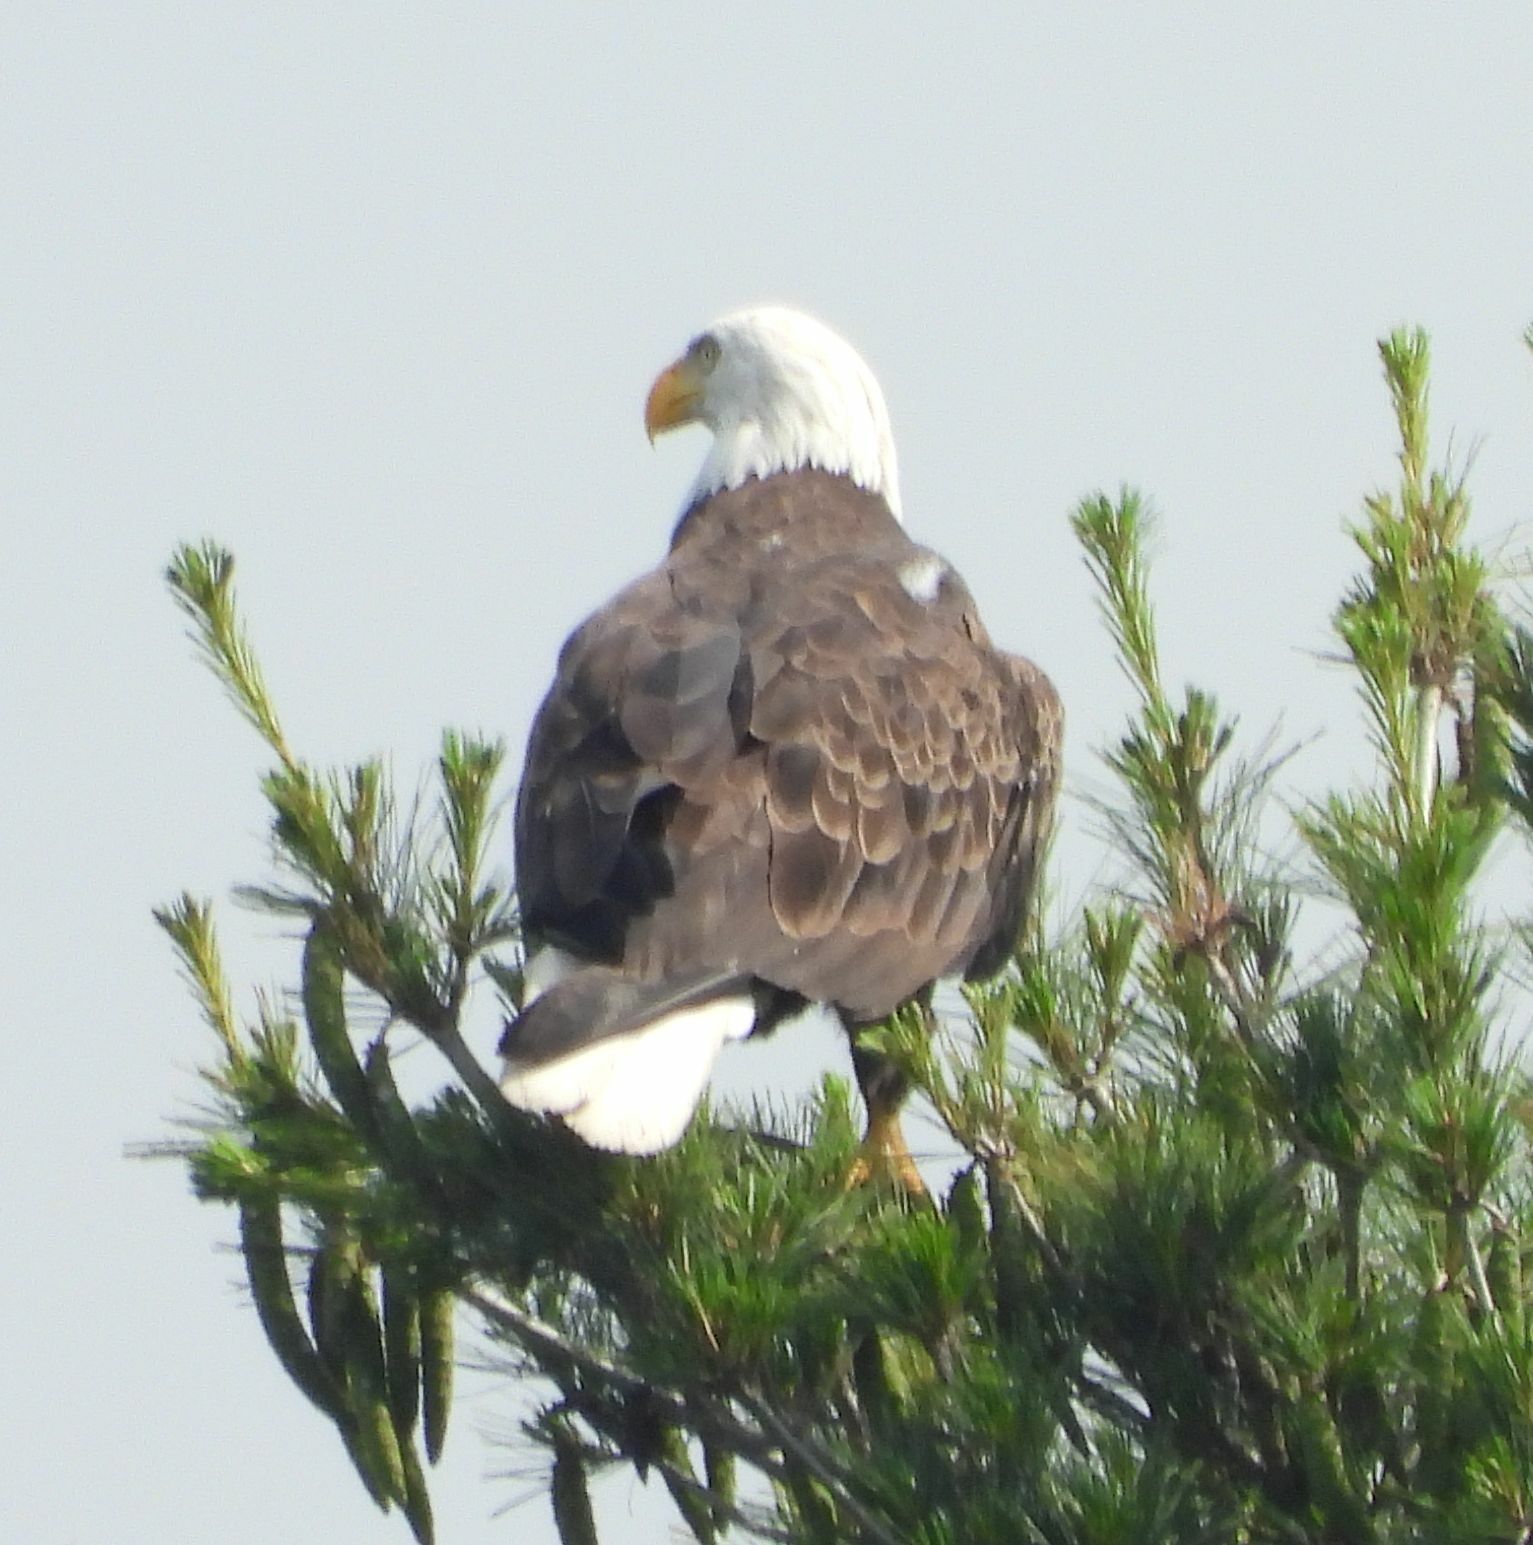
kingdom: Animalia
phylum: Chordata
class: Aves
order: Accipitriformes
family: Accipitridae
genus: Haliaeetus
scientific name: Haliaeetus leucocephalus
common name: Bald eagle
